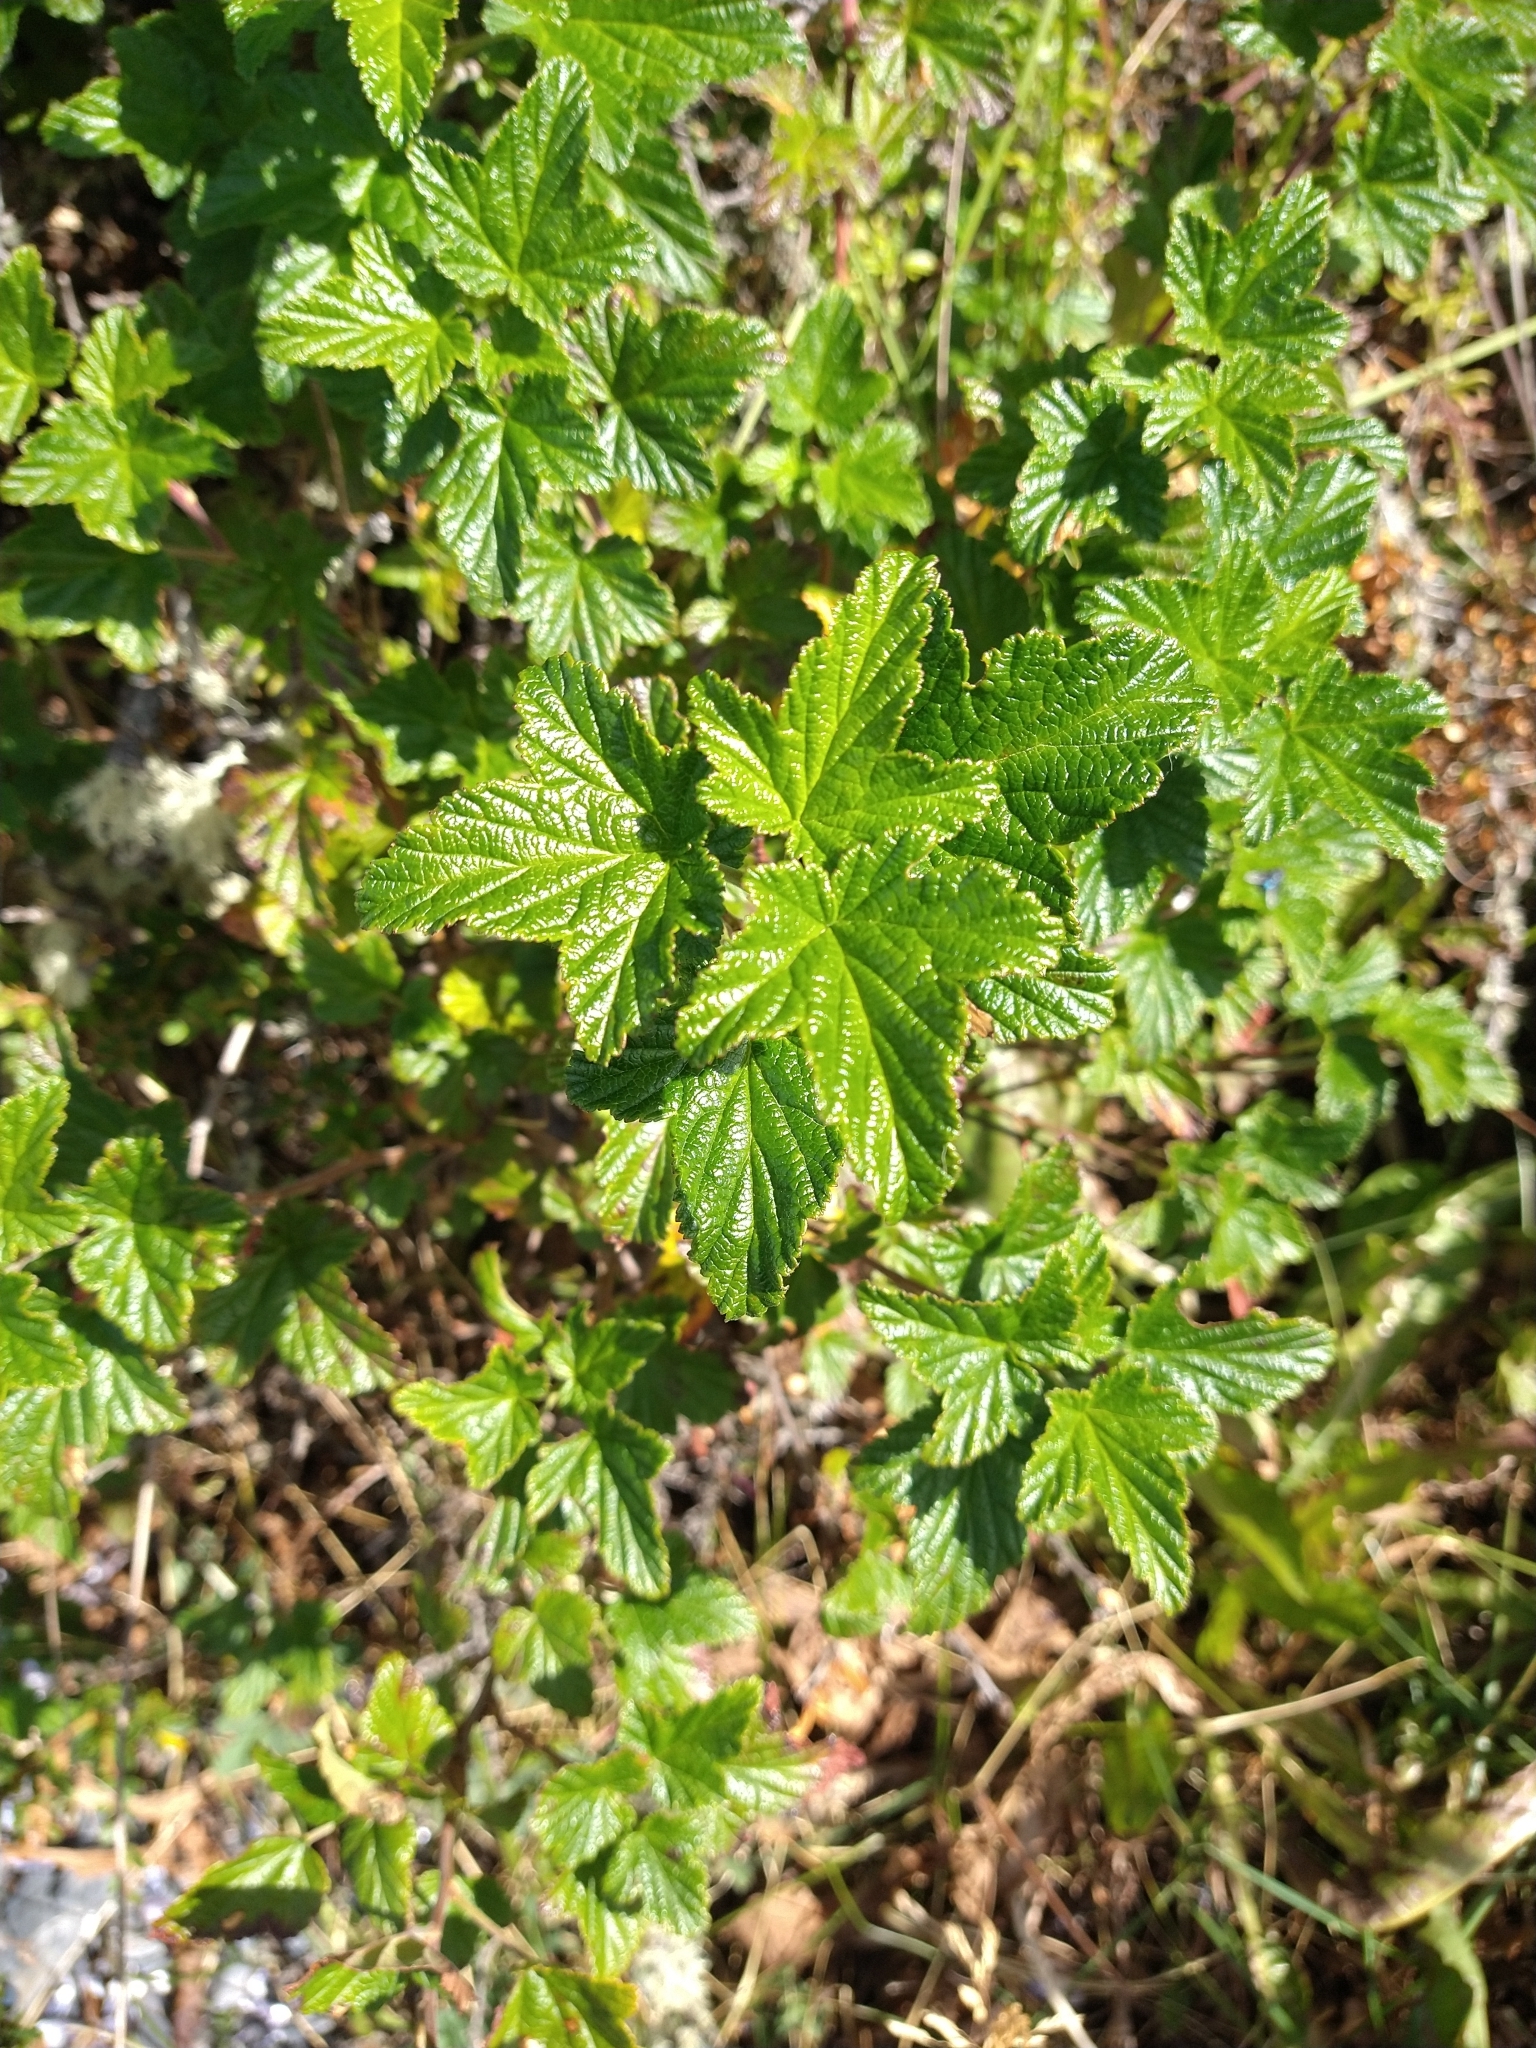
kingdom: Plantae
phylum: Tracheophyta
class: Magnoliopsida
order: Saxifragales
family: Grossulariaceae
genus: Ribes
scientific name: Ribes magellanicum
